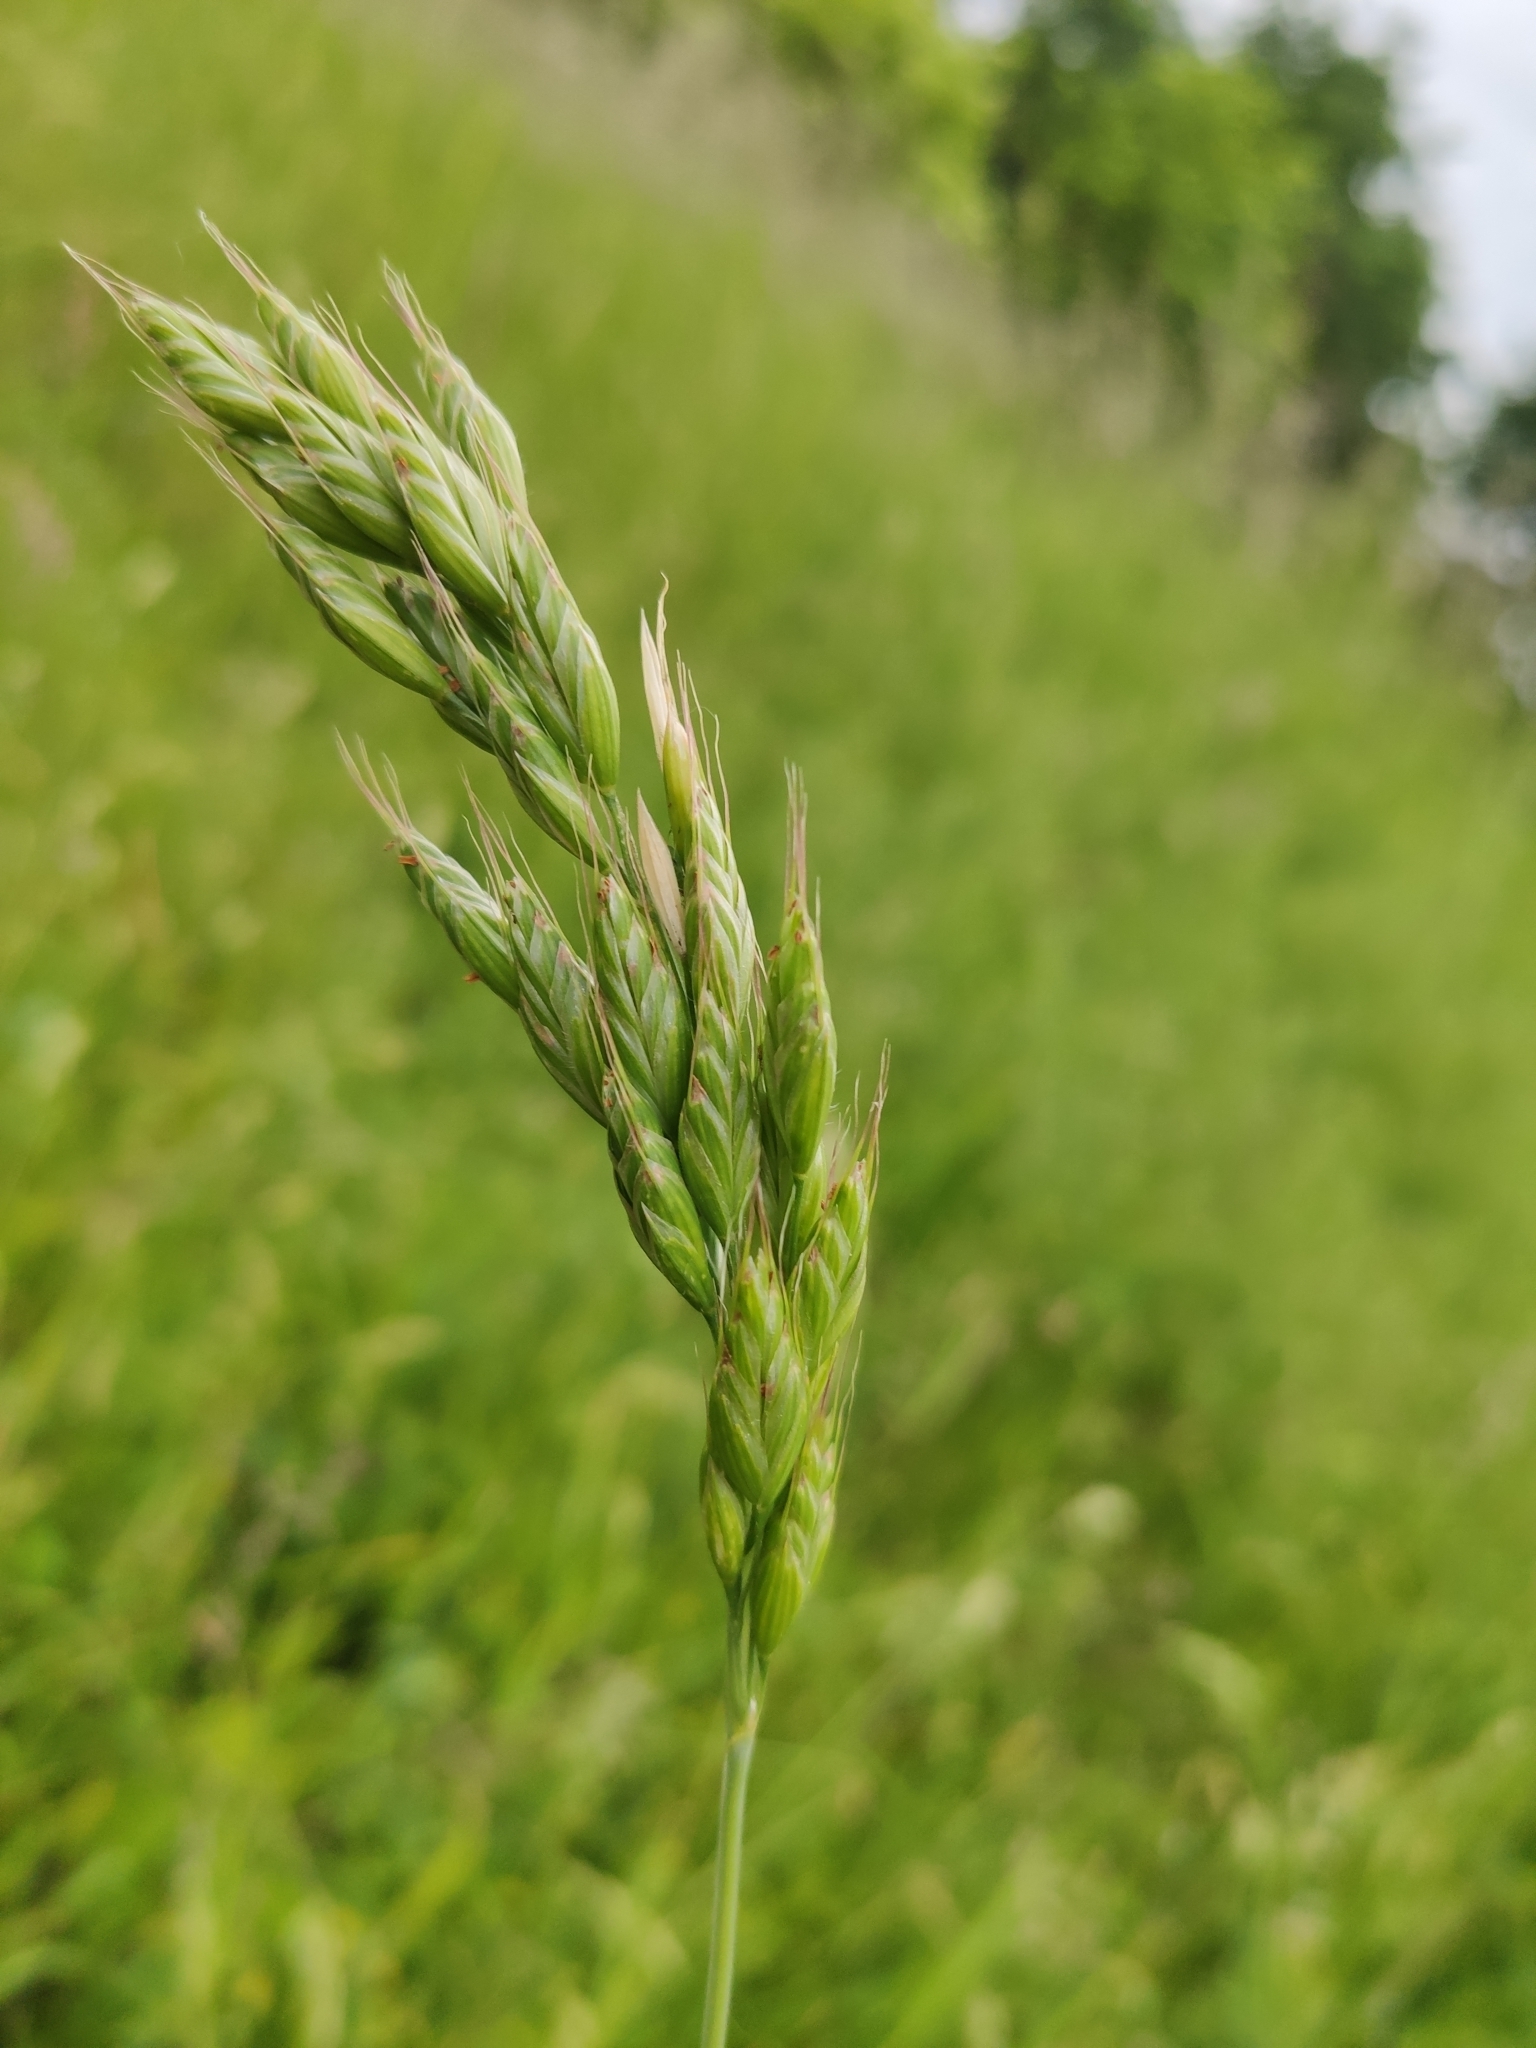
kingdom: Plantae
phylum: Tracheophyta
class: Liliopsida
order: Poales
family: Poaceae
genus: Bromus
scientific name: Bromus hordeaceus
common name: Soft brome
